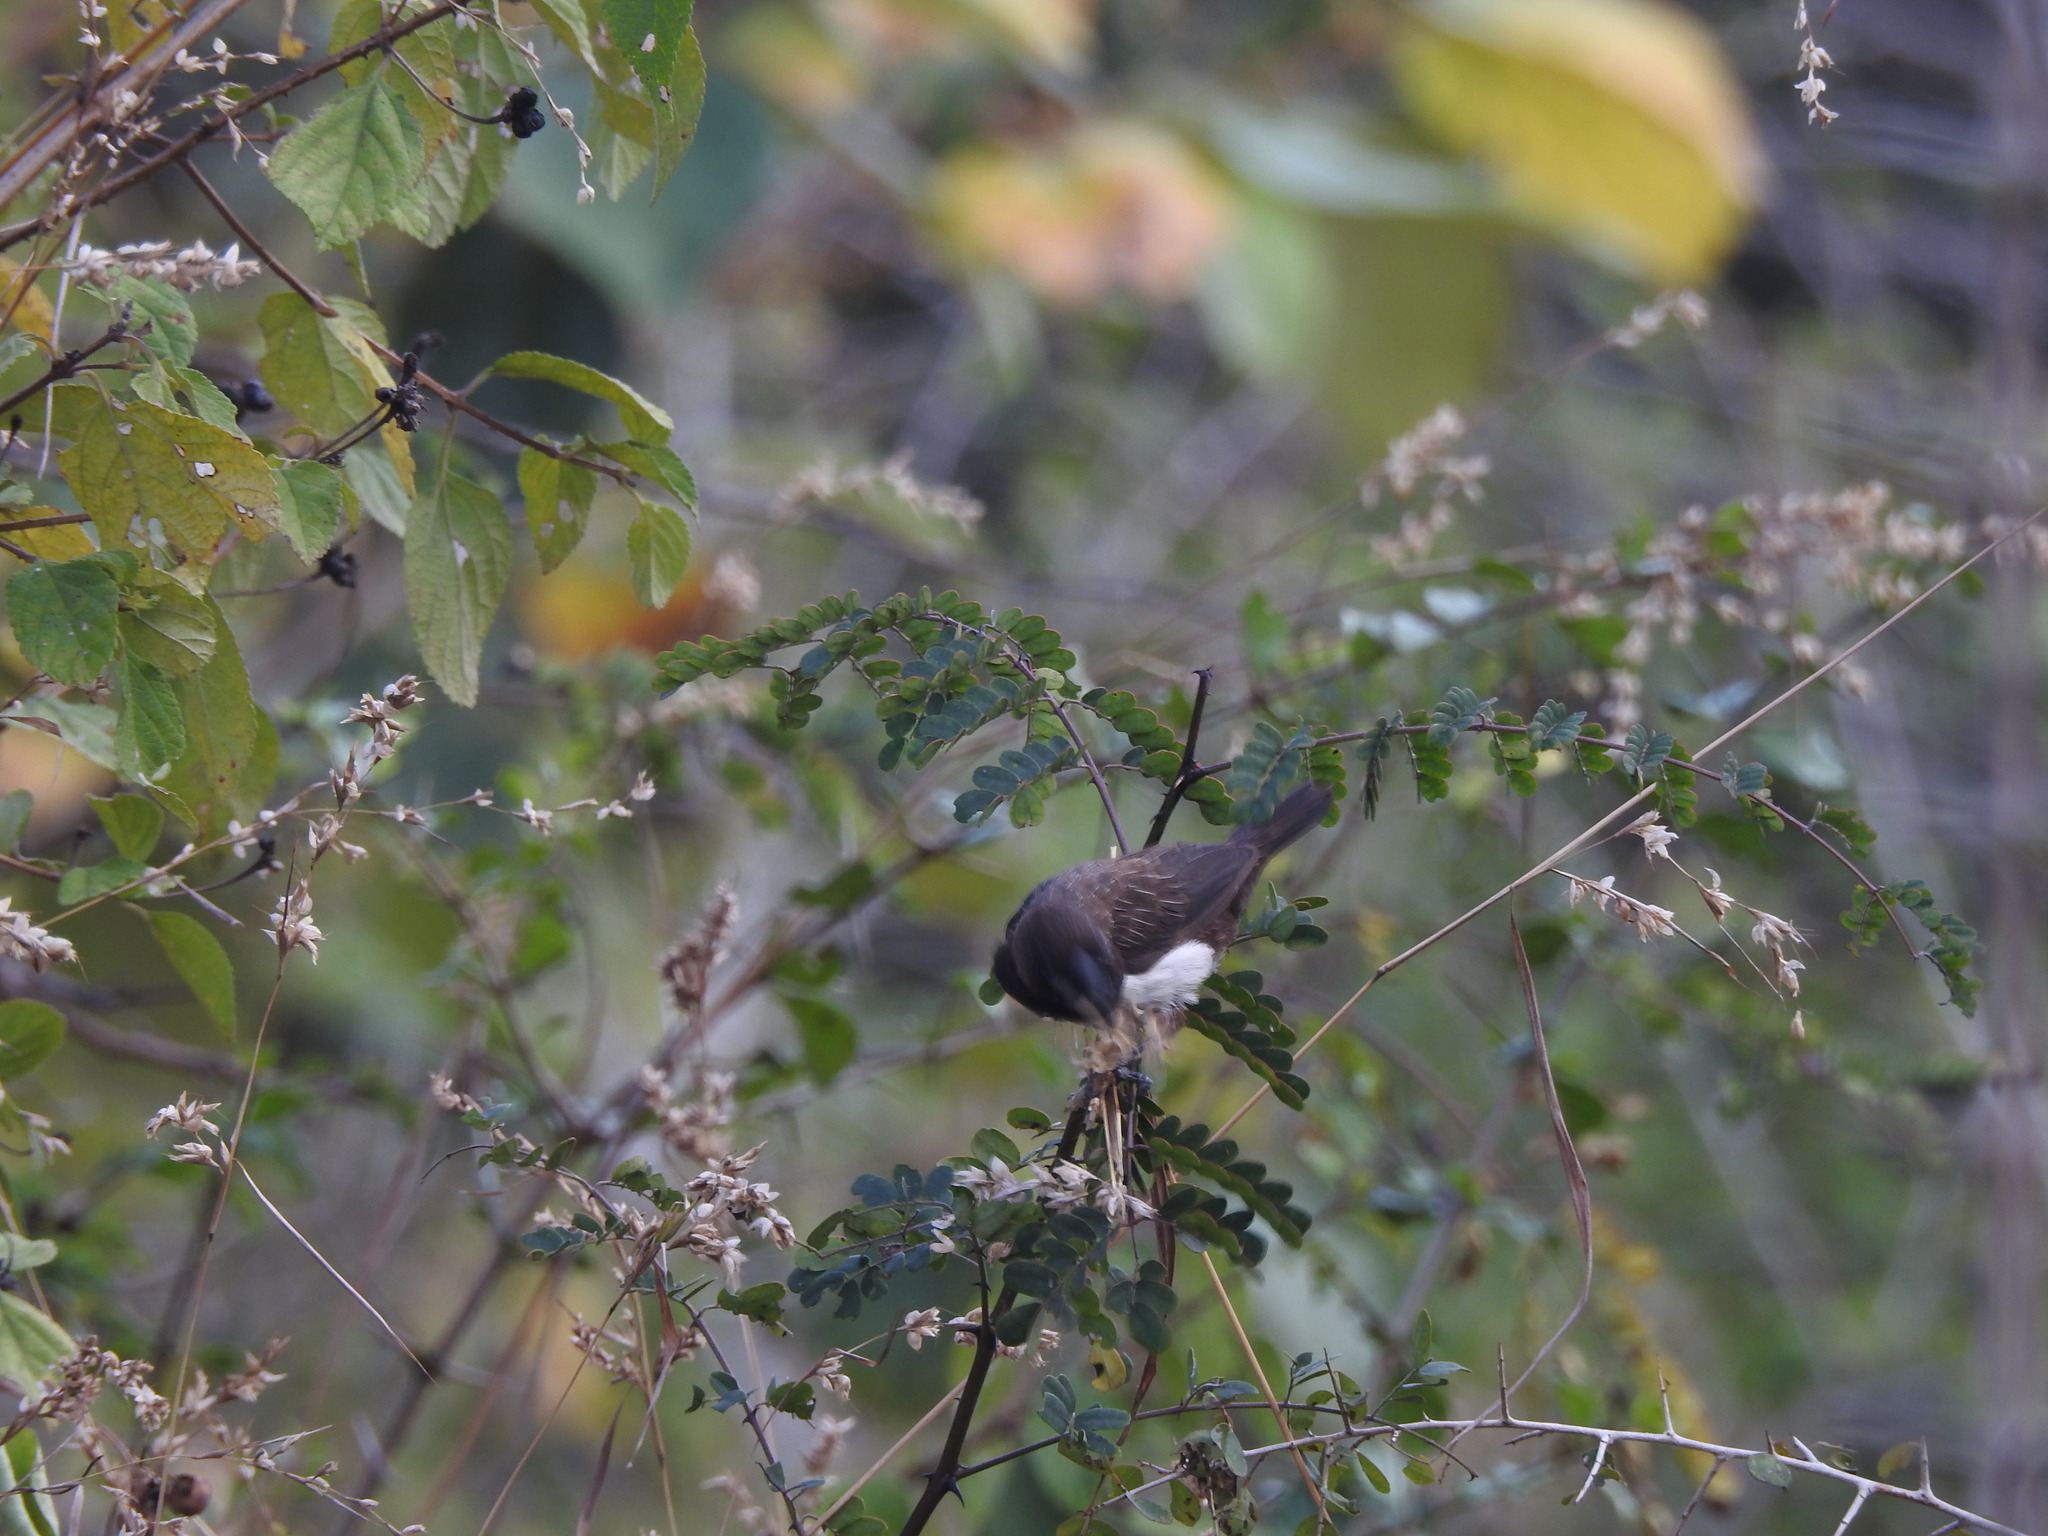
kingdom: Animalia
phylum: Chordata
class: Aves
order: Passeriformes
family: Estrildidae
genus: Lonchura
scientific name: Lonchura striata
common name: White-rumped munia
